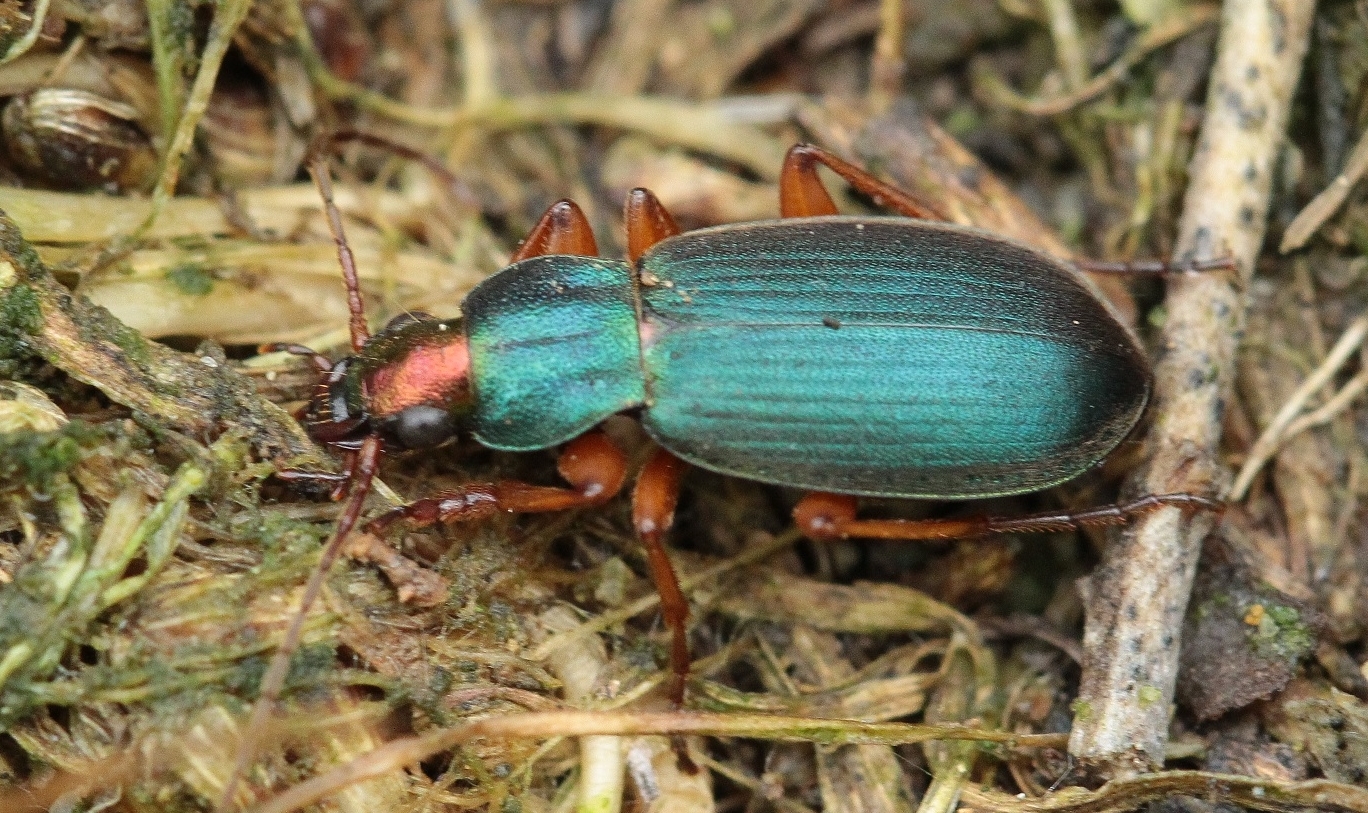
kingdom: Animalia
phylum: Arthropoda
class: Insecta
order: Coleoptera
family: Carabidae
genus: Chlaenius
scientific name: Chlaenius aeneocephalus
